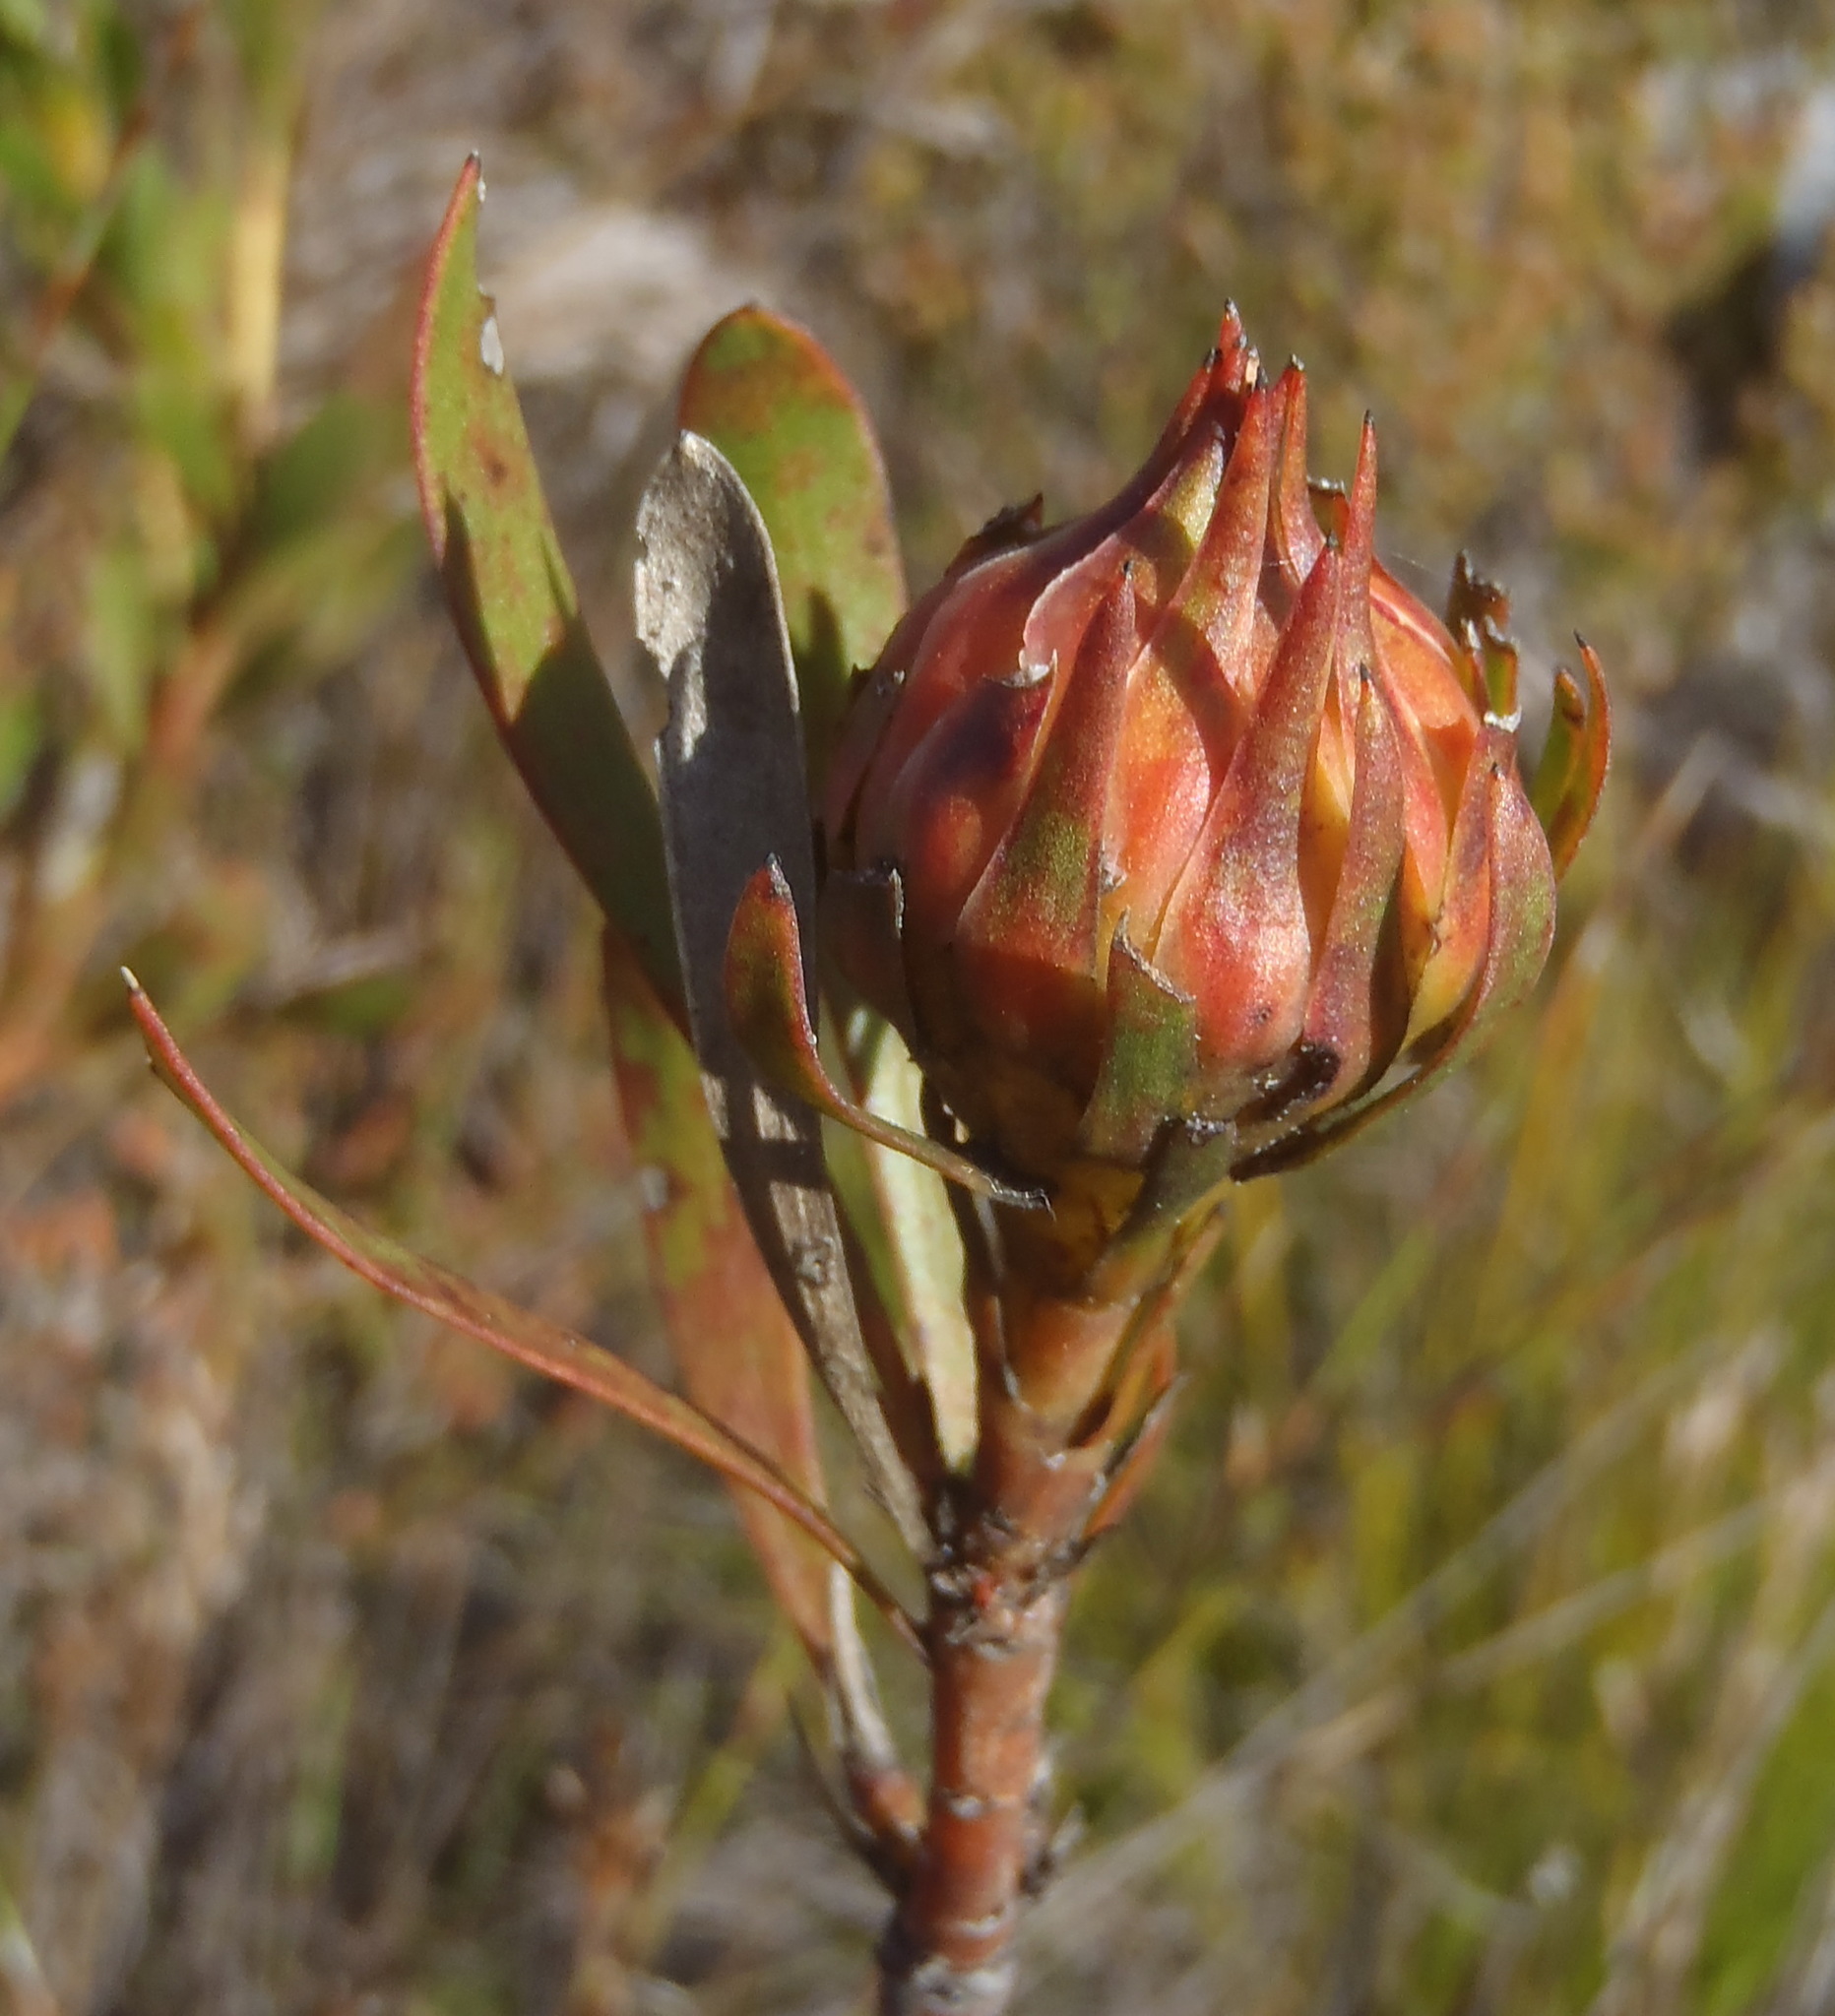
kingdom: Plantae
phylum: Tracheophyta
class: Magnoliopsida
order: Proteales
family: Proteaceae
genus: Aulax
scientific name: Aulax umbellata
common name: Broad-leaf featherbush
